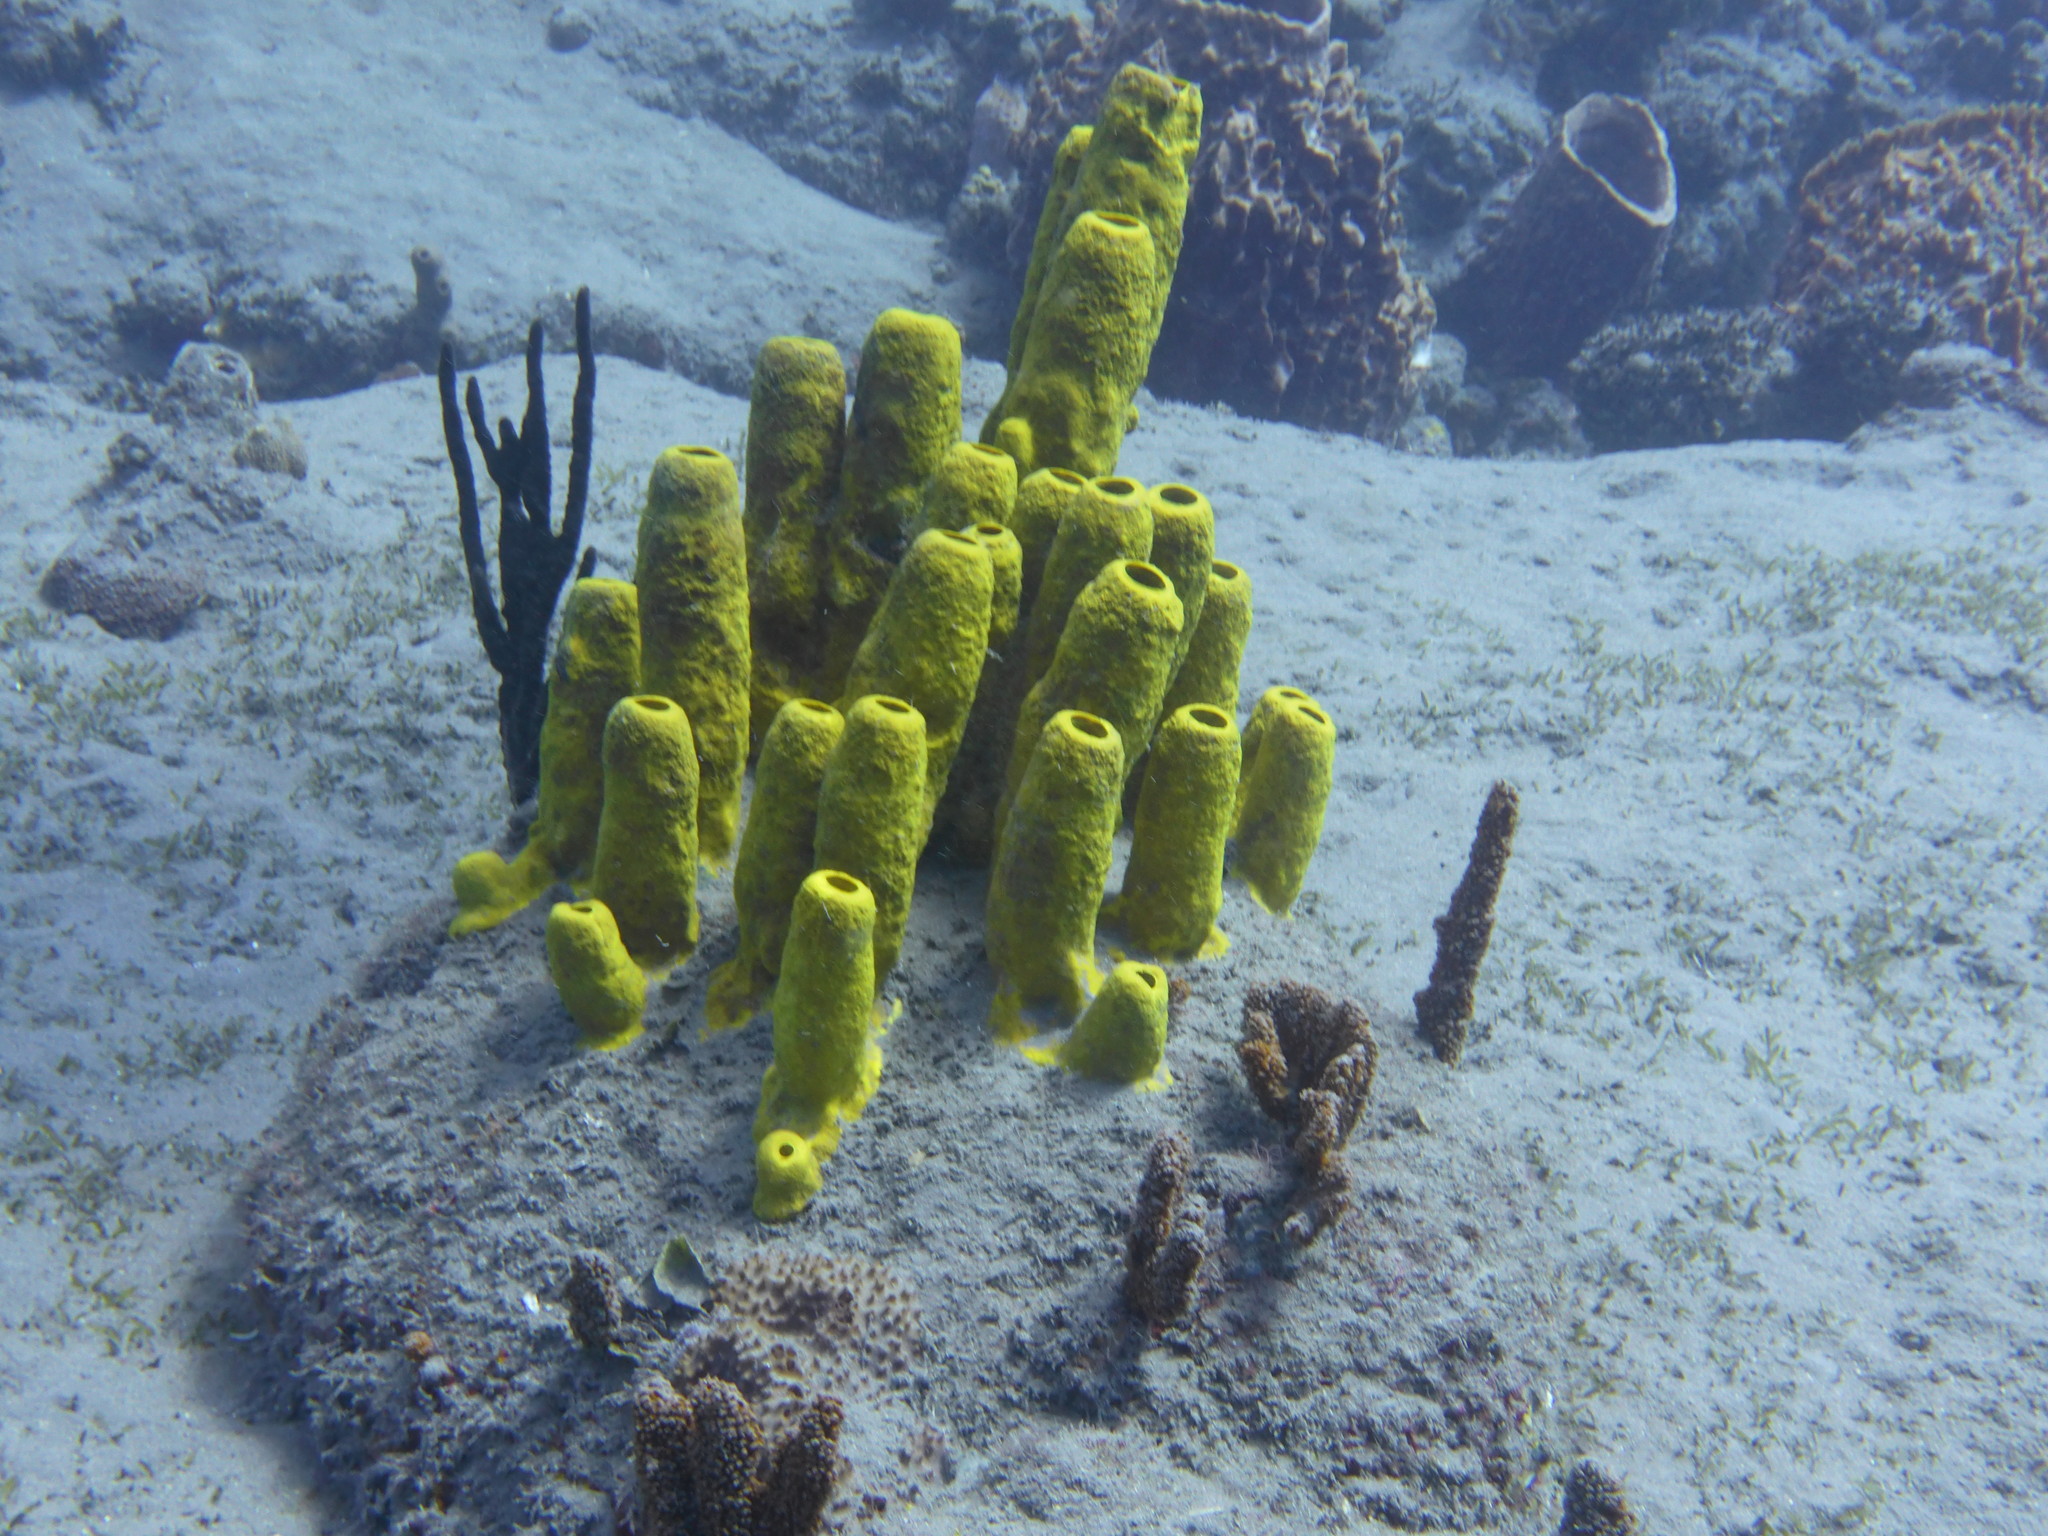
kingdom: Animalia
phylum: Porifera
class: Demospongiae
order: Verongiida
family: Aplysinidae
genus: Aplysina
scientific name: Aplysina fistularis
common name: Candle sponge
